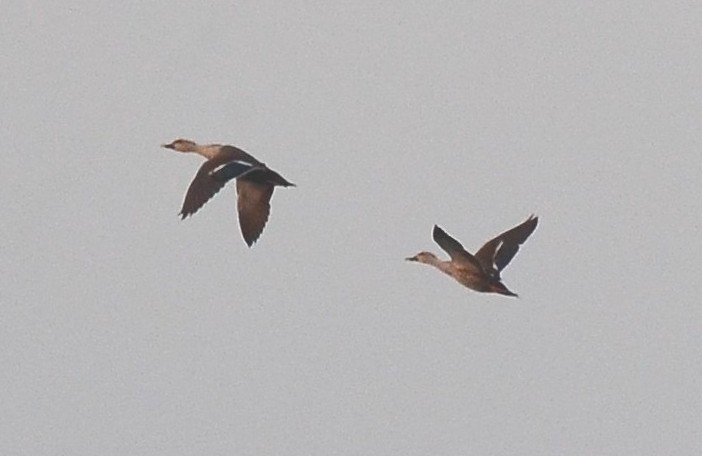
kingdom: Animalia
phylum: Chordata
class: Aves
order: Anseriformes
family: Anatidae
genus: Anas
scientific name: Anas poecilorhyncha
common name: Indian spot-billed duck
